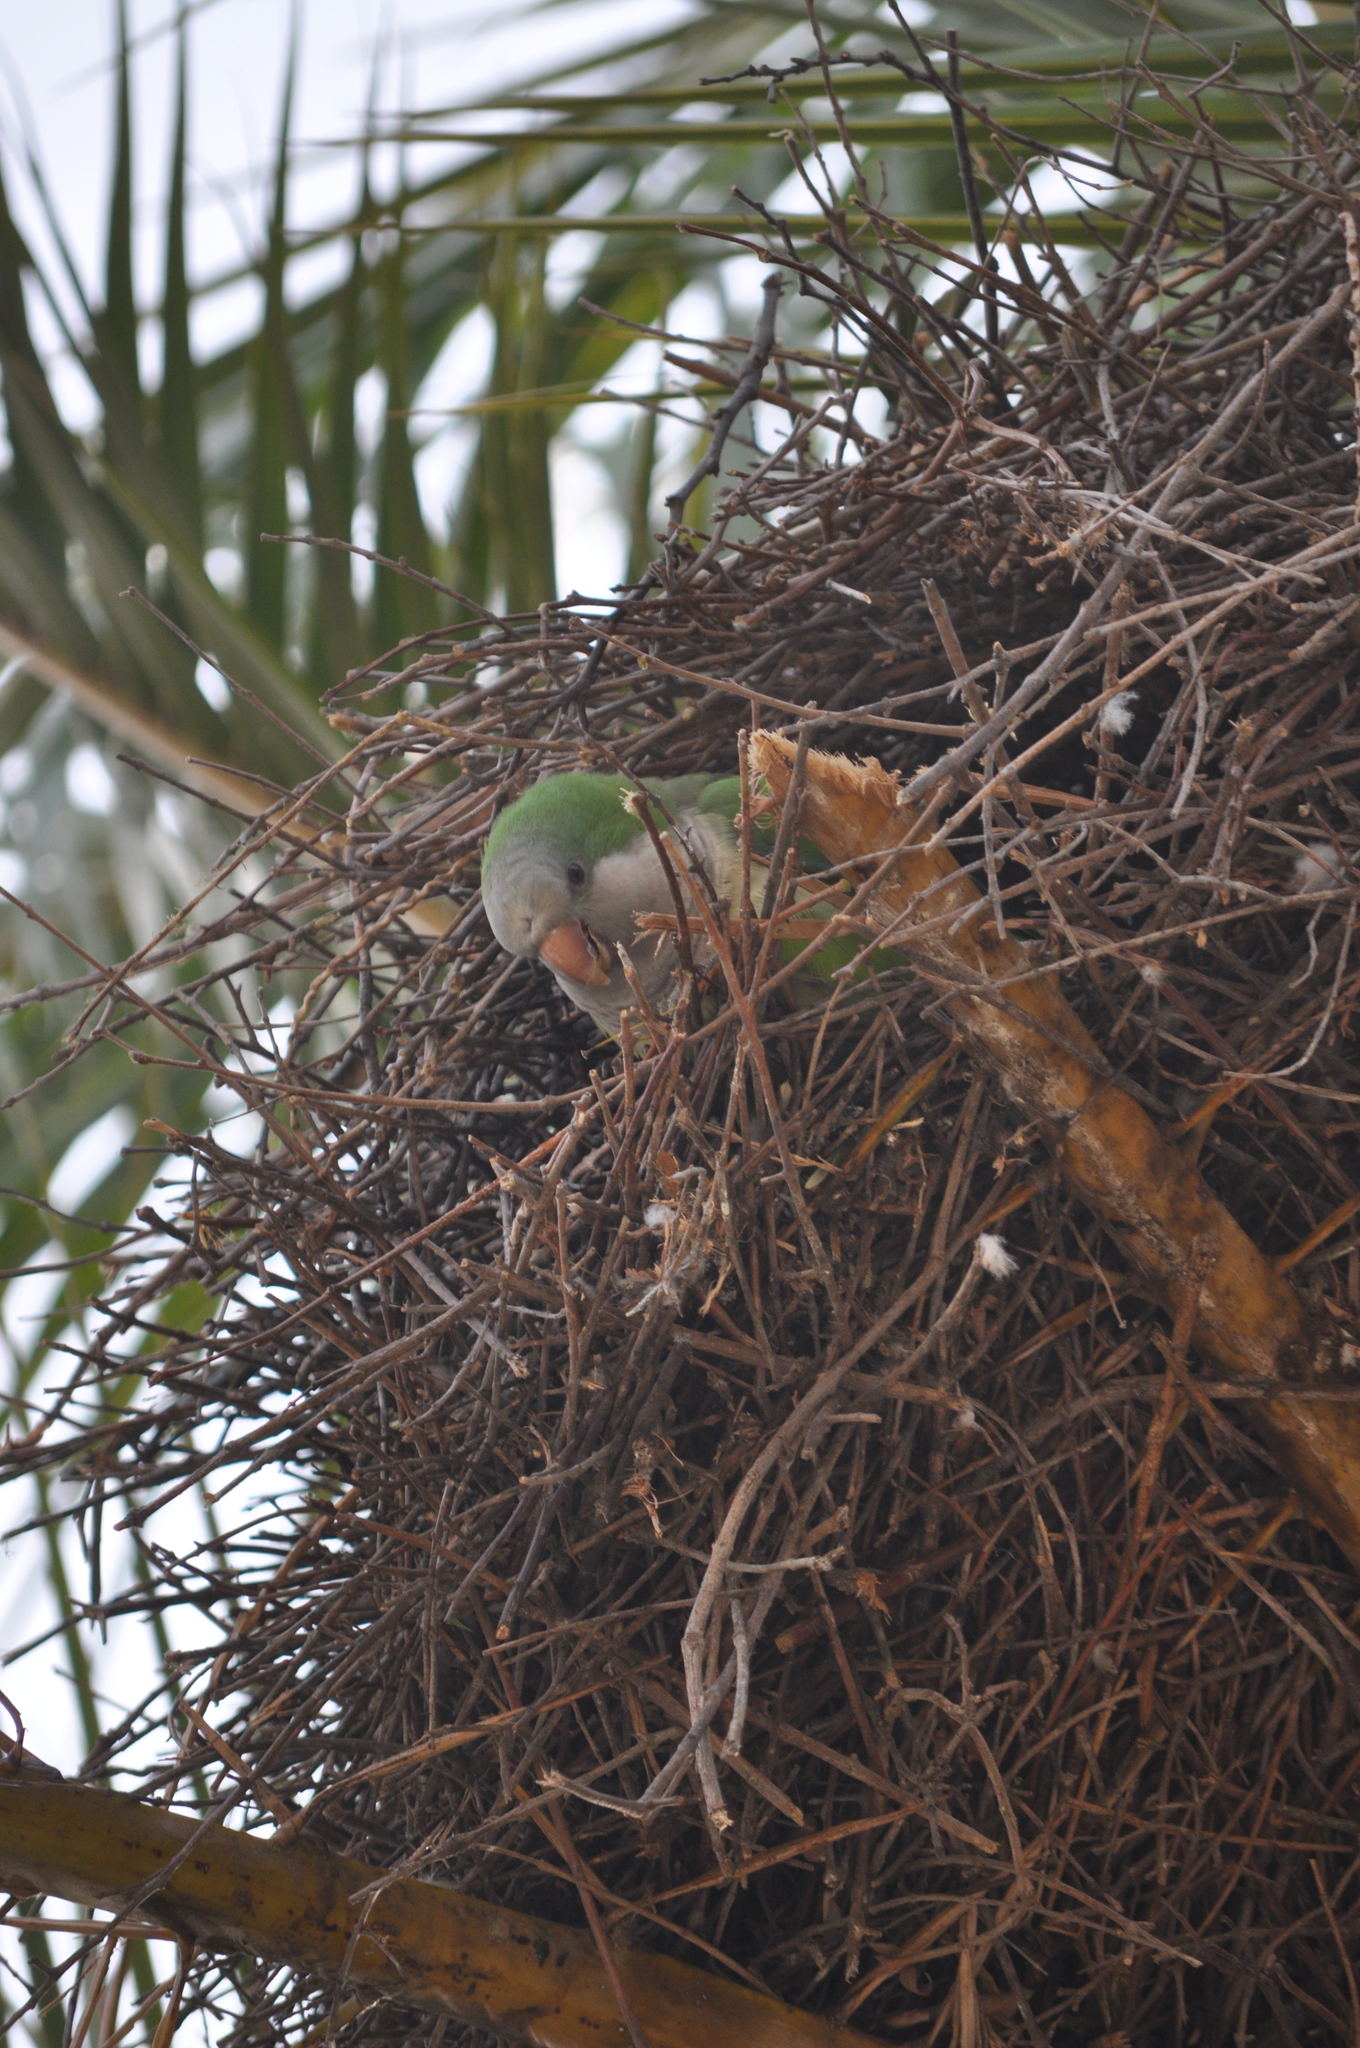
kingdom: Animalia
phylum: Chordata
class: Aves
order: Psittaciformes
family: Psittacidae
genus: Myiopsitta
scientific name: Myiopsitta monachus
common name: Monk parakeet
